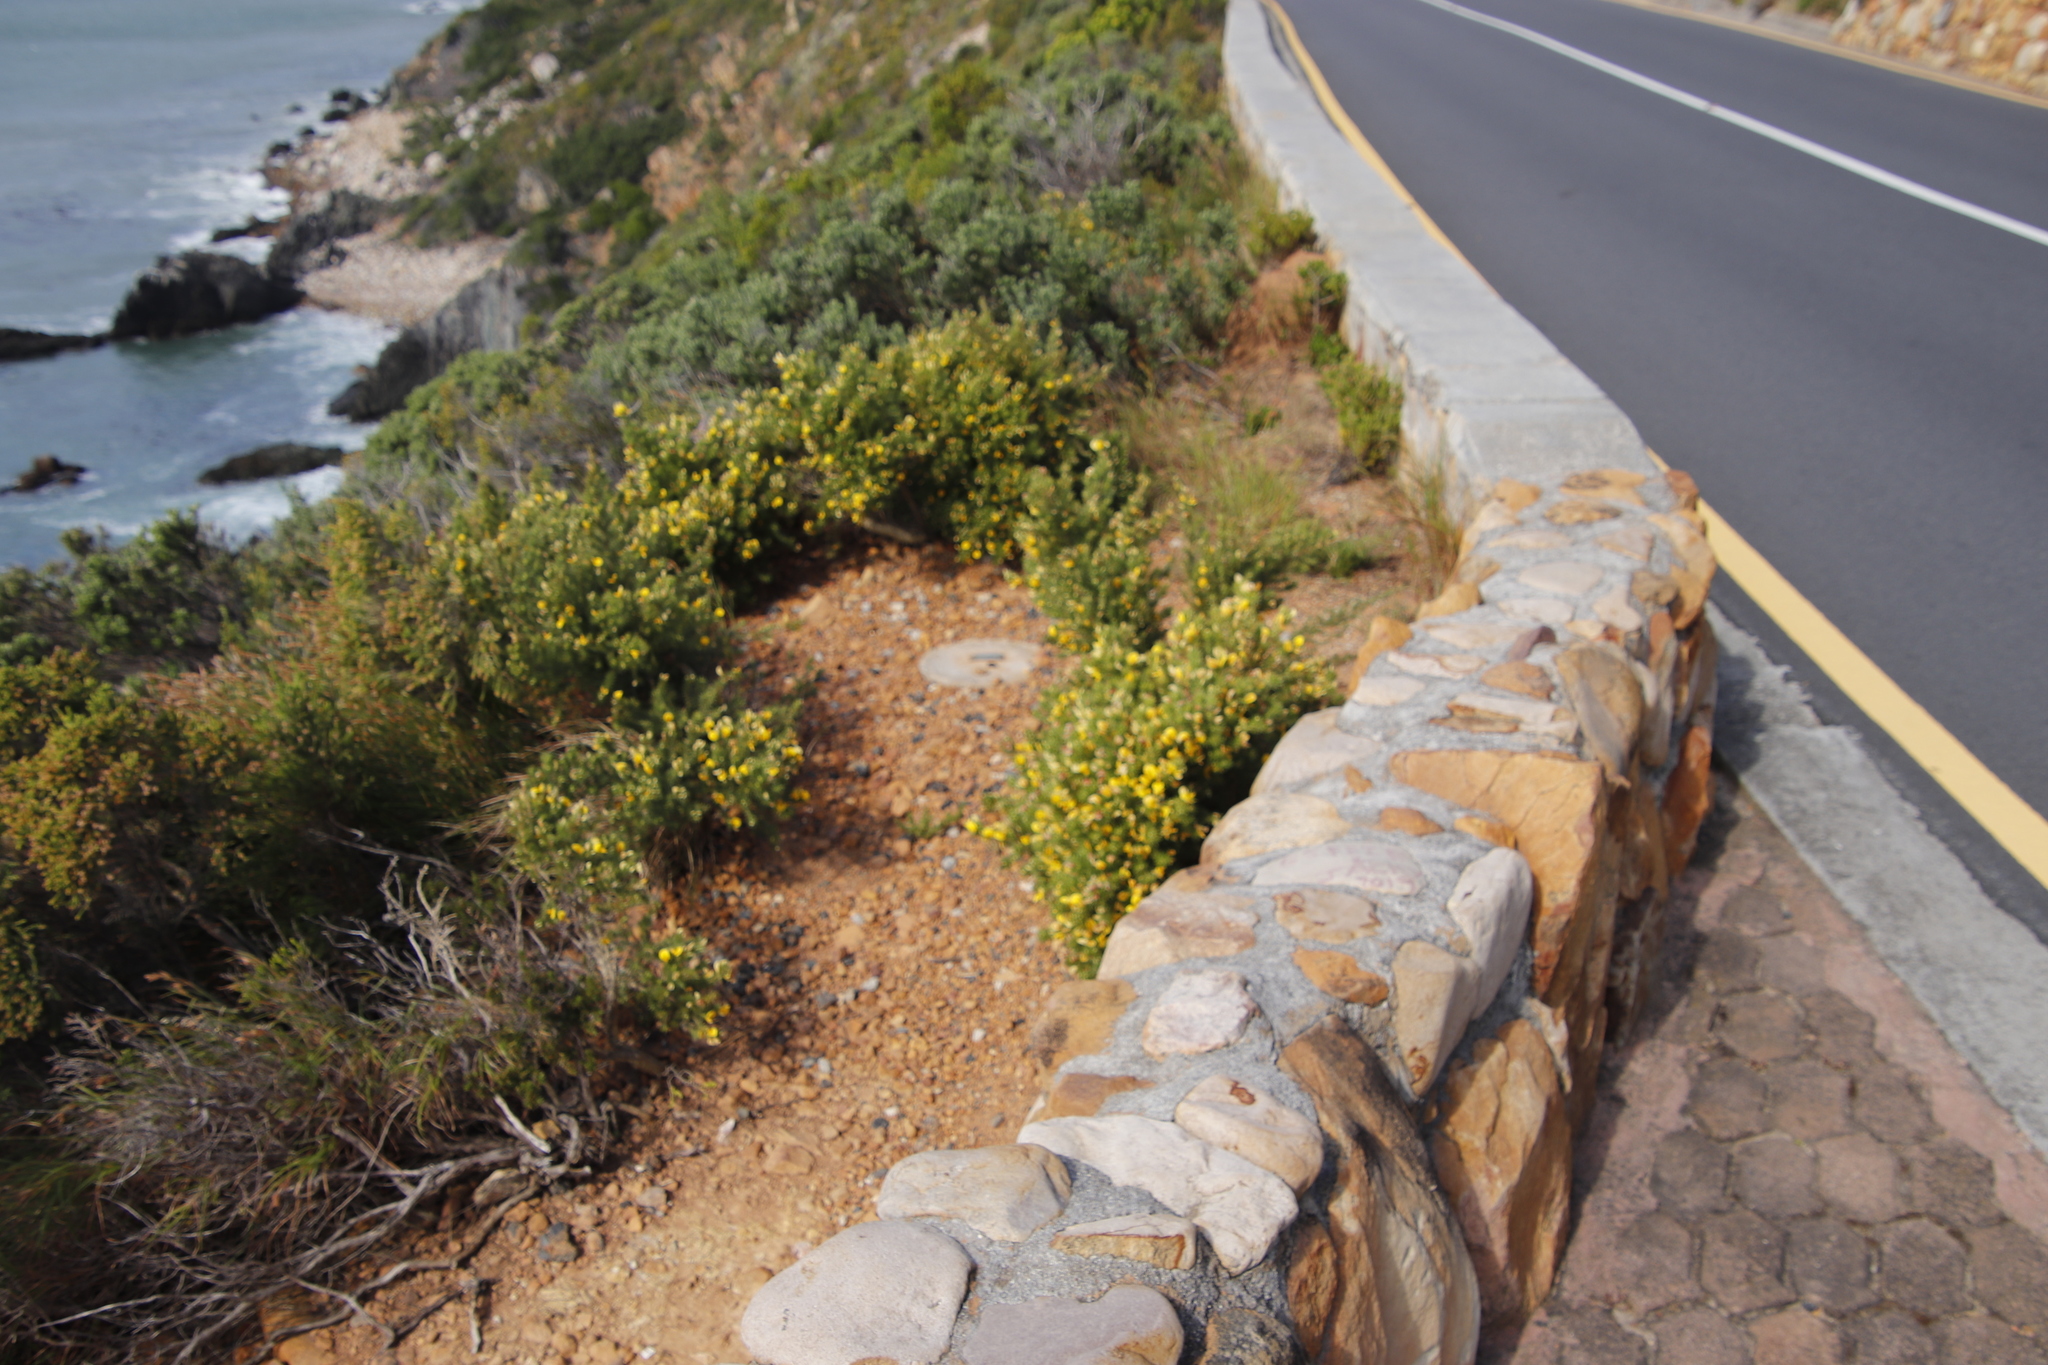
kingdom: Plantae
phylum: Tracheophyta
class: Magnoliopsida
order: Fabales
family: Fabaceae
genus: Aspalathus
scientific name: Aspalathus neglecta
